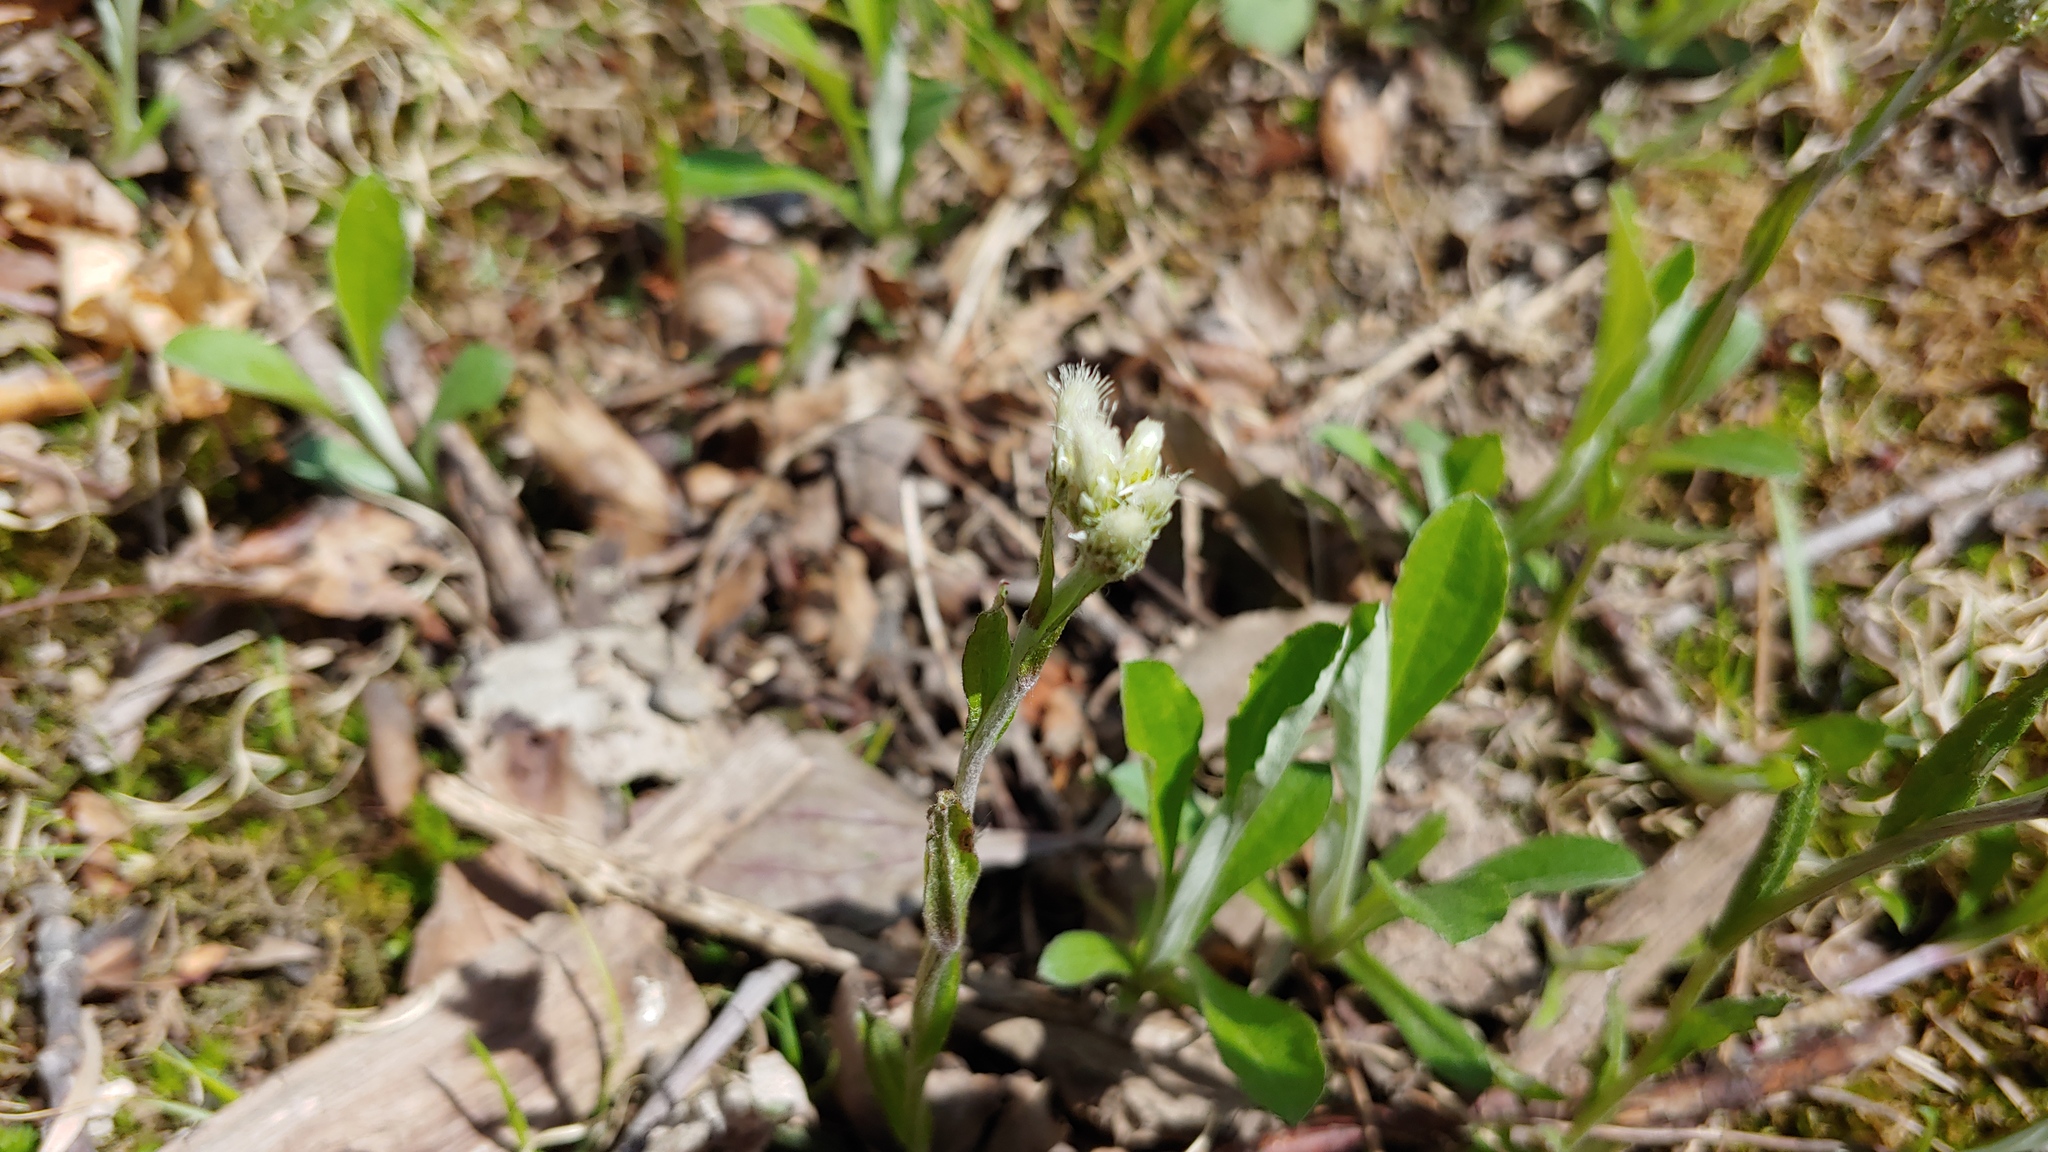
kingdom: Plantae
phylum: Tracheophyta
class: Magnoliopsida
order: Asterales
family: Asteraceae
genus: Antennaria
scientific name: Antennaria parlinii
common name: Parlin's pussytoes
